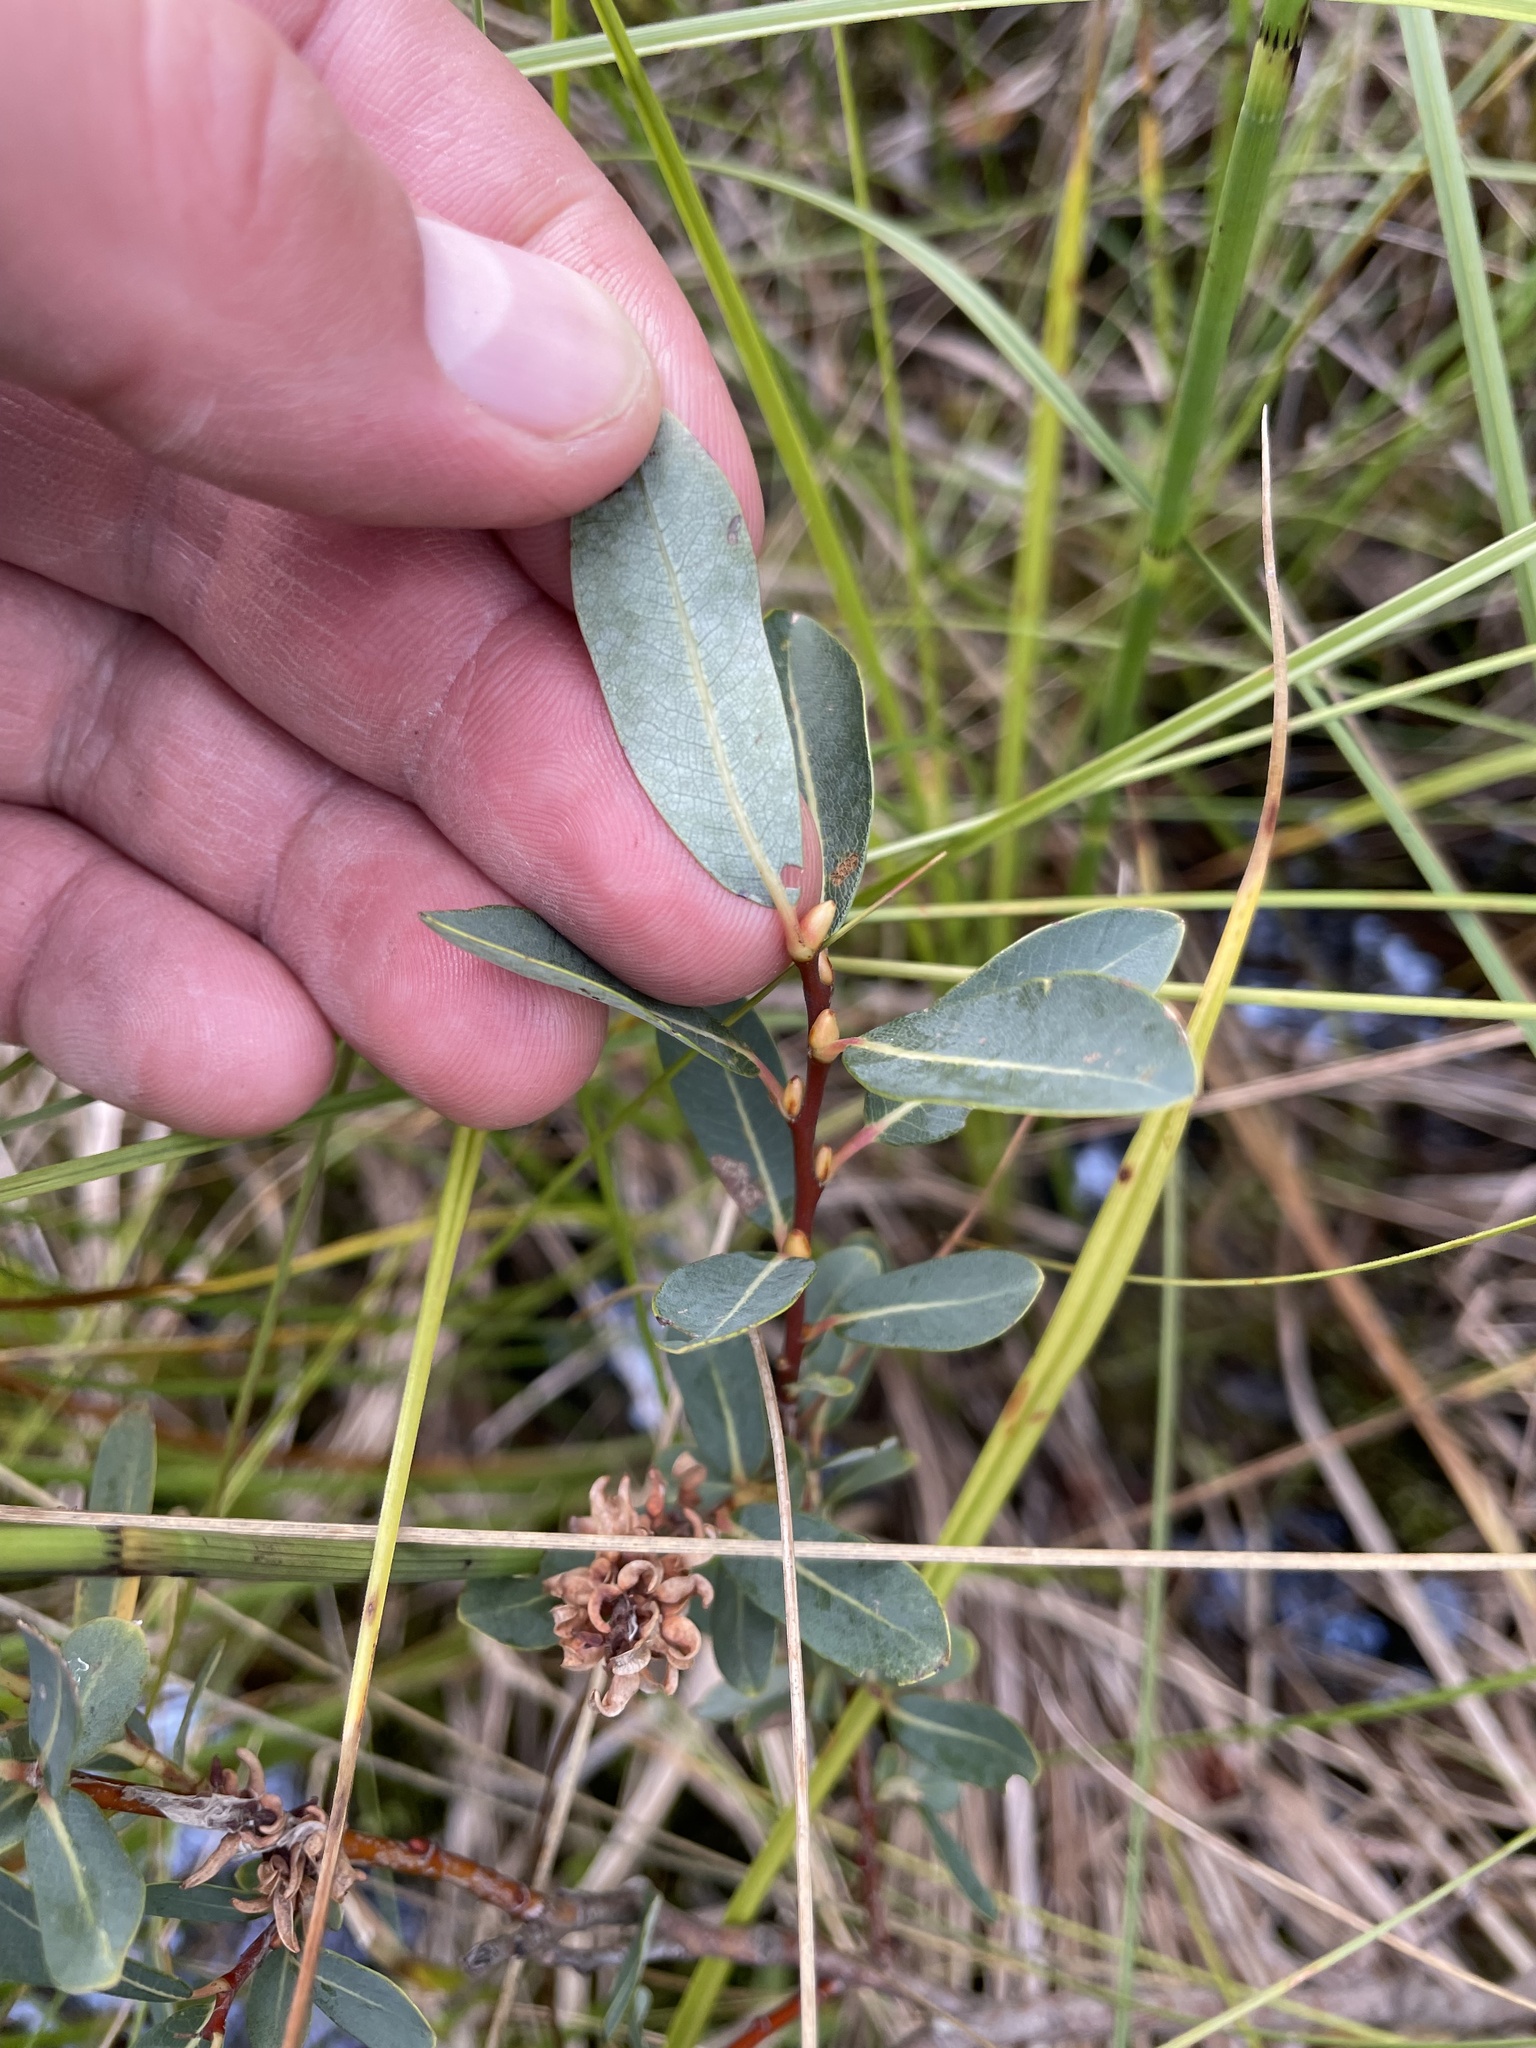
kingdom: Plantae
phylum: Tracheophyta
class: Magnoliopsida
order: Malpighiales
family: Salicaceae
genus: Salix
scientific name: Salix pedicellaris
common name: Bog willow
